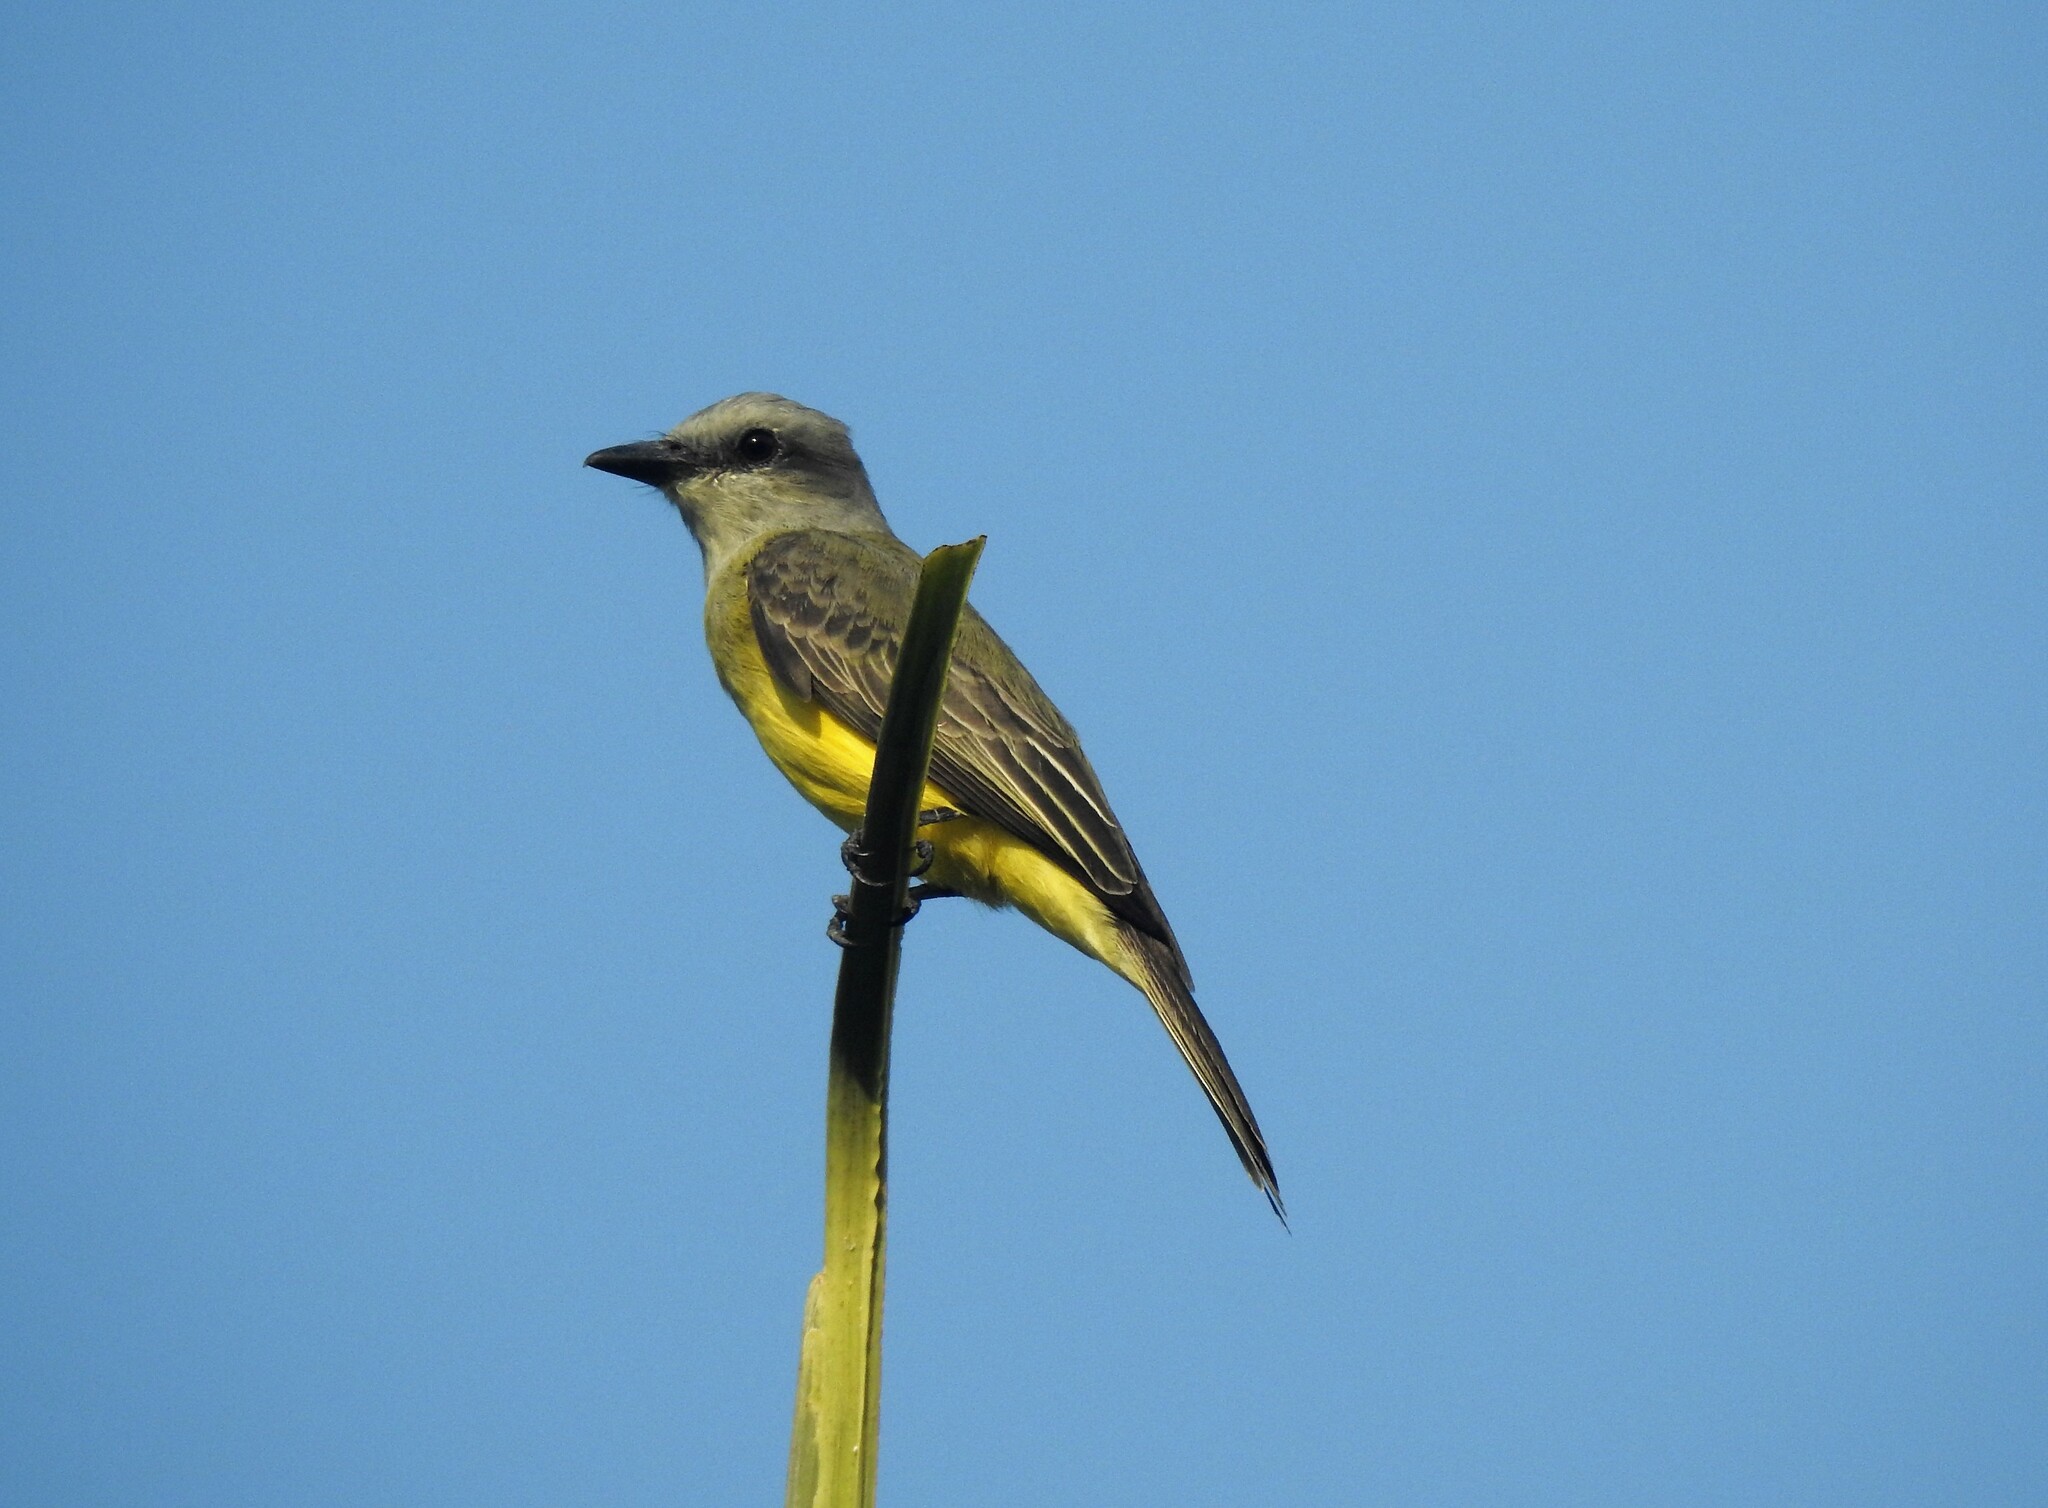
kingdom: Animalia
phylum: Chordata
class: Aves
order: Passeriformes
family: Tyrannidae
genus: Tyrannus
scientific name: Tyrannus melancholicus
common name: Tropical kingbird
